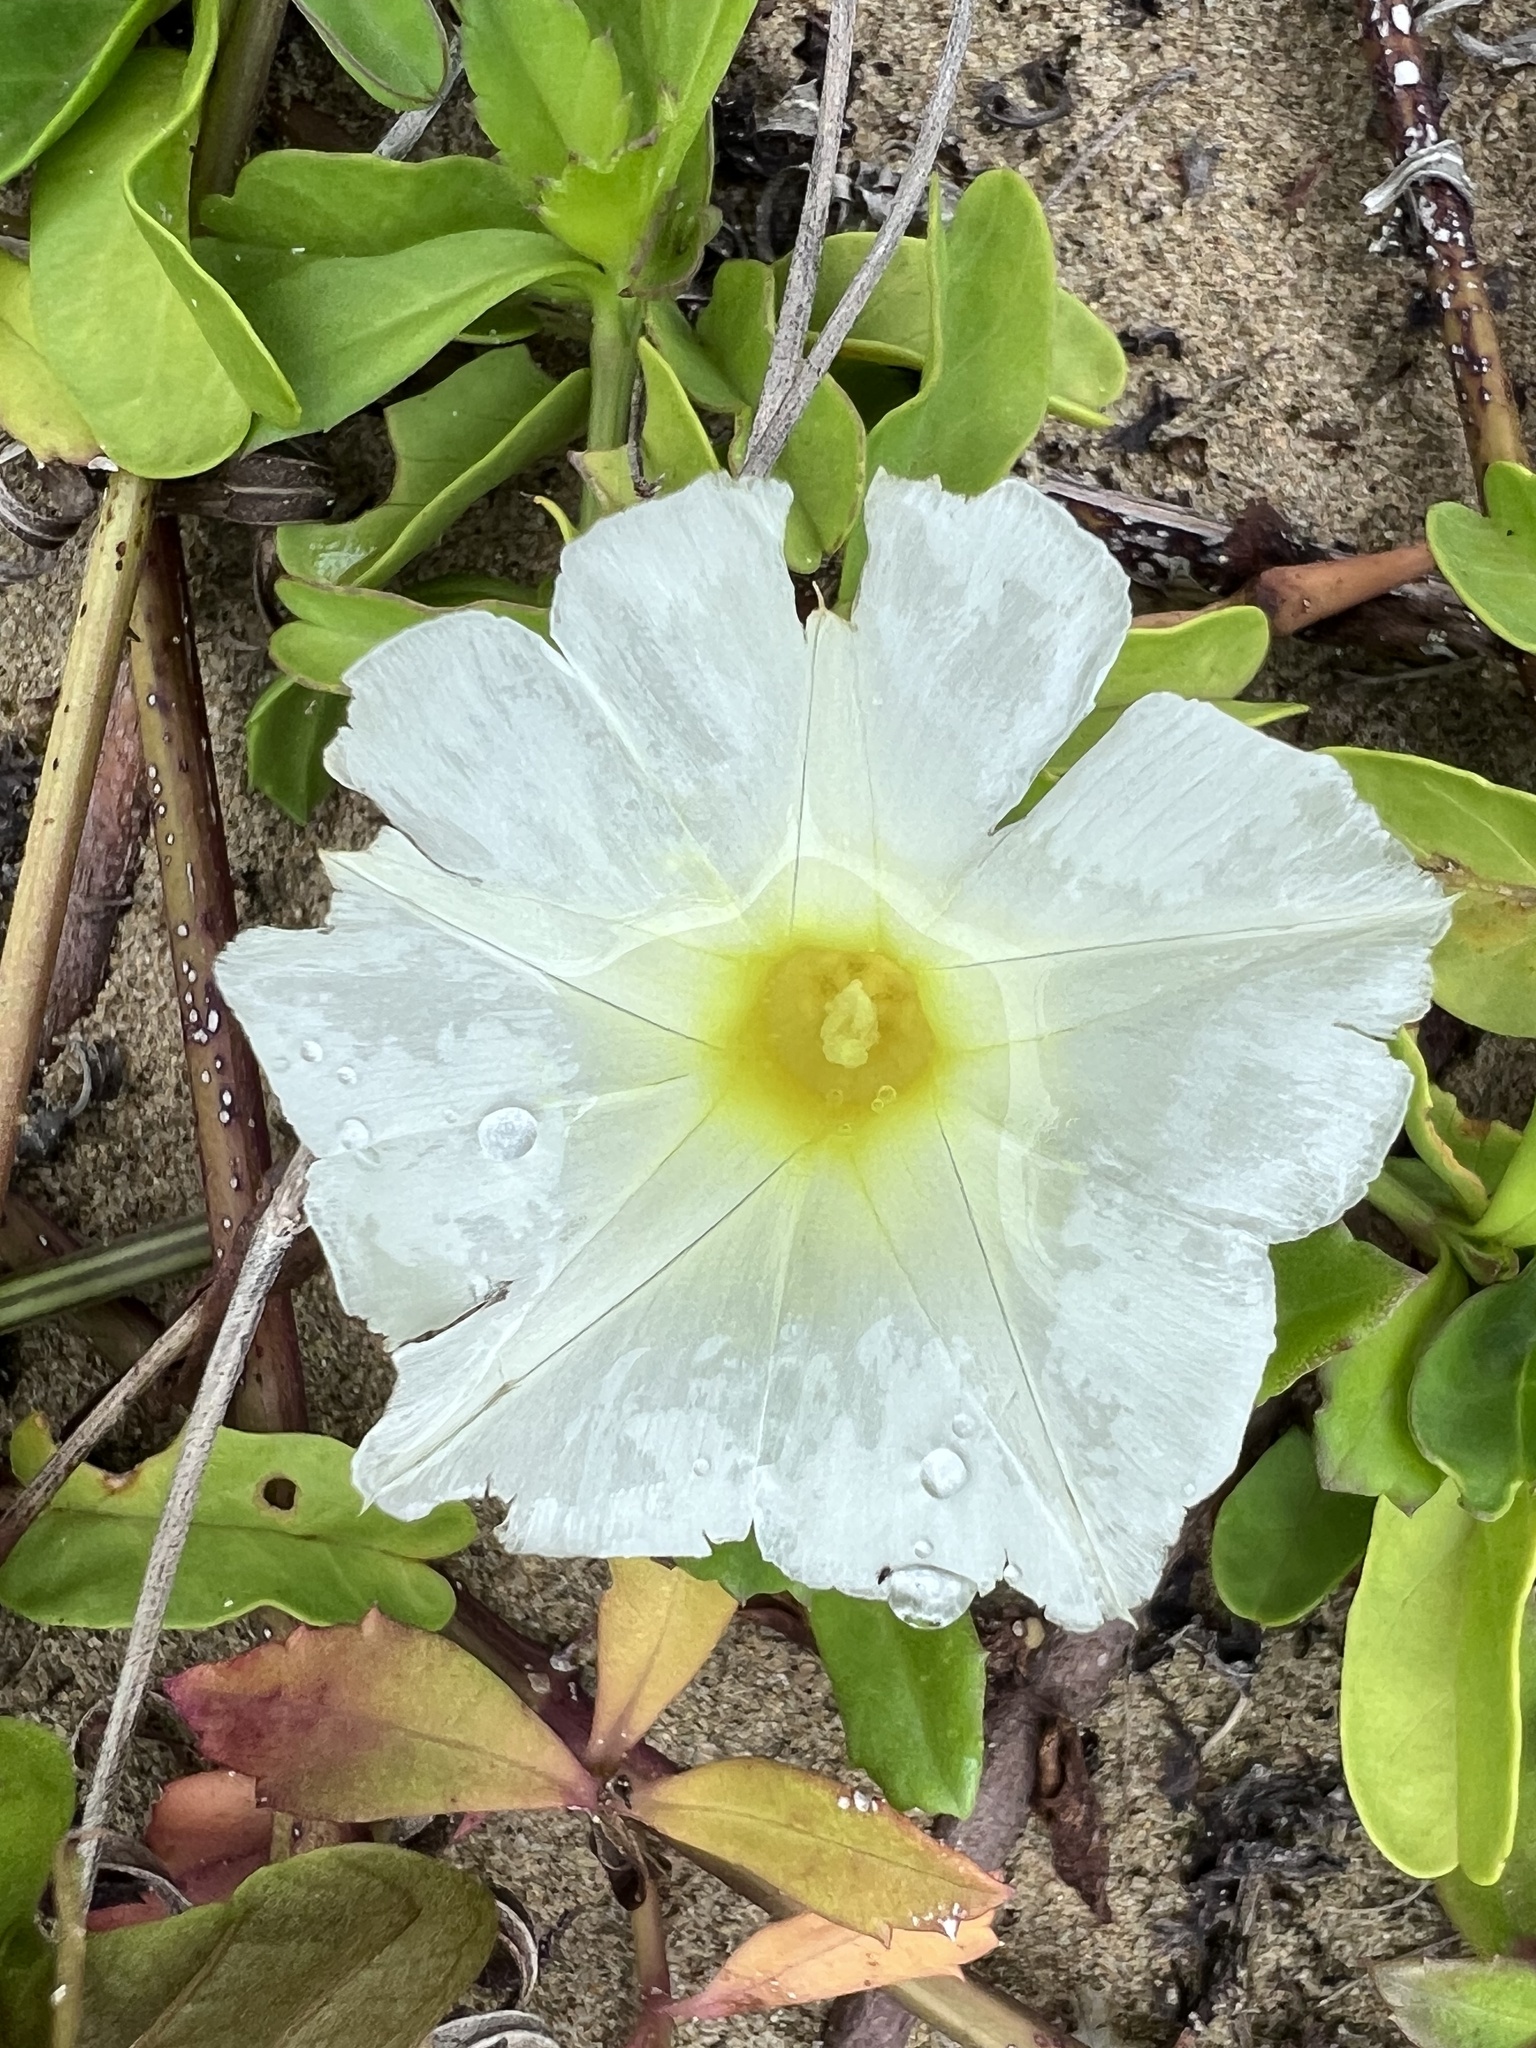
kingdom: Plantae
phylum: Tracheophyta
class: Magnoliopsida
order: Solanales
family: Convolvulaceae
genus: Ipomoea
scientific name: Ipomoea imperati
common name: Fiddle-leaf morning-glory
